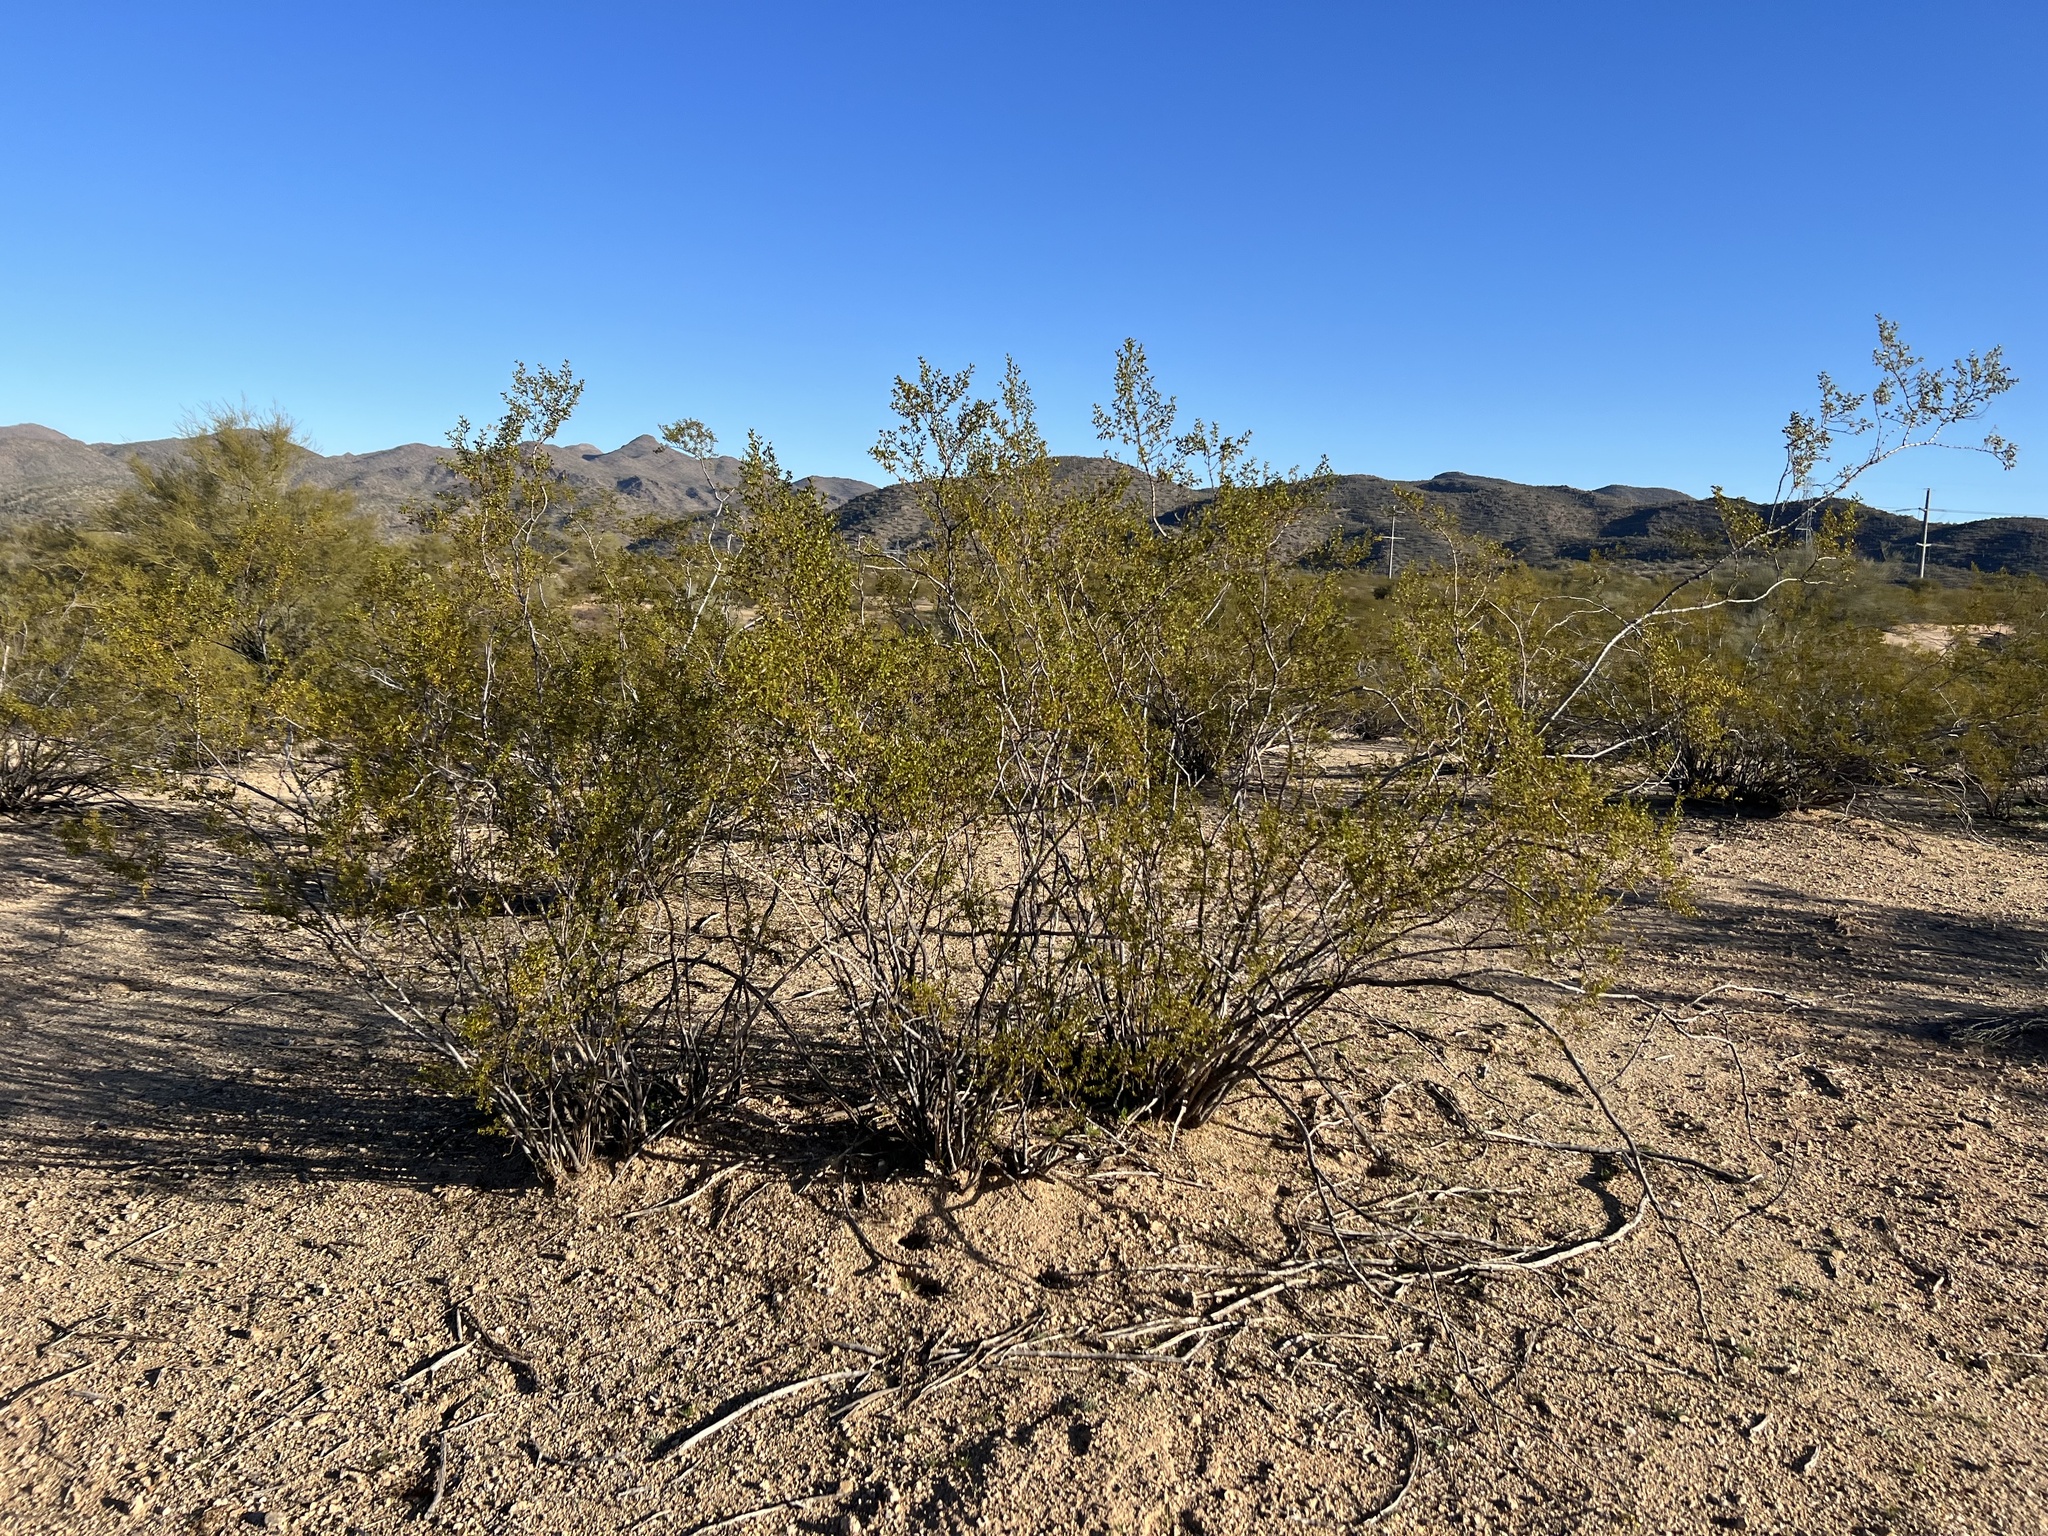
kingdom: Plantae
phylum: Tracheophyta
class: Magnoliopsida
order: Zygophyllales
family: Zygophyllaceae
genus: Larrea
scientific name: Larrea tridentata
